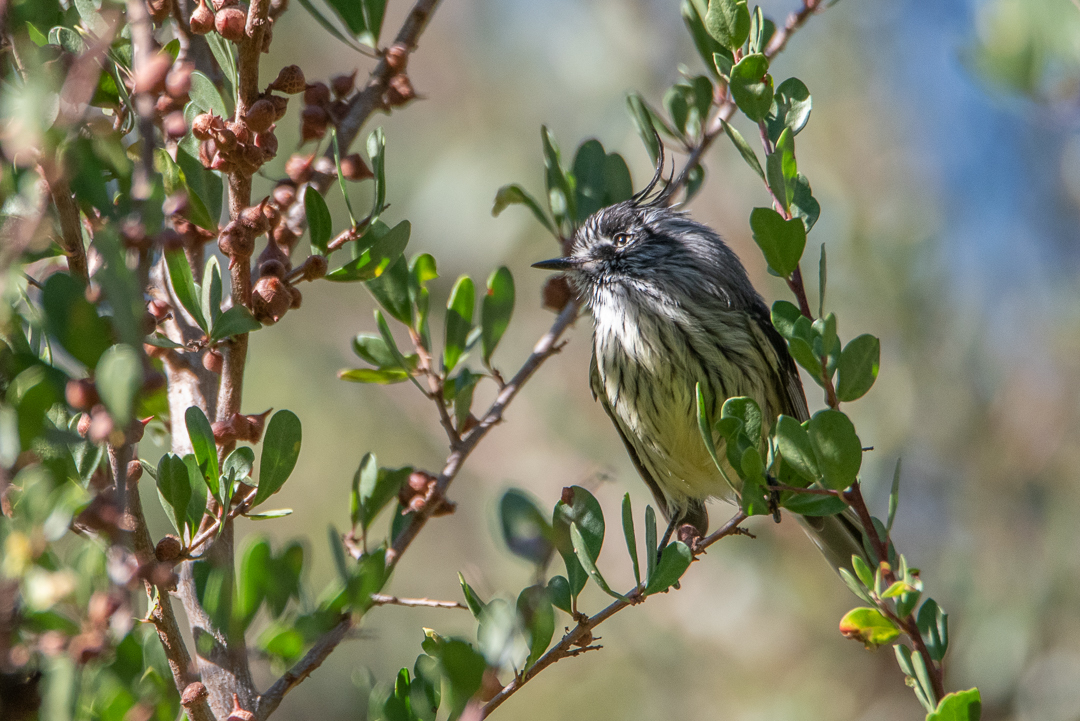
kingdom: Animalia
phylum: Chordata
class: Aves
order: Passeriformes
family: Tyrannidae
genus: Anairetes
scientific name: Anairetes parulus
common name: Tufted tit-tyrant
